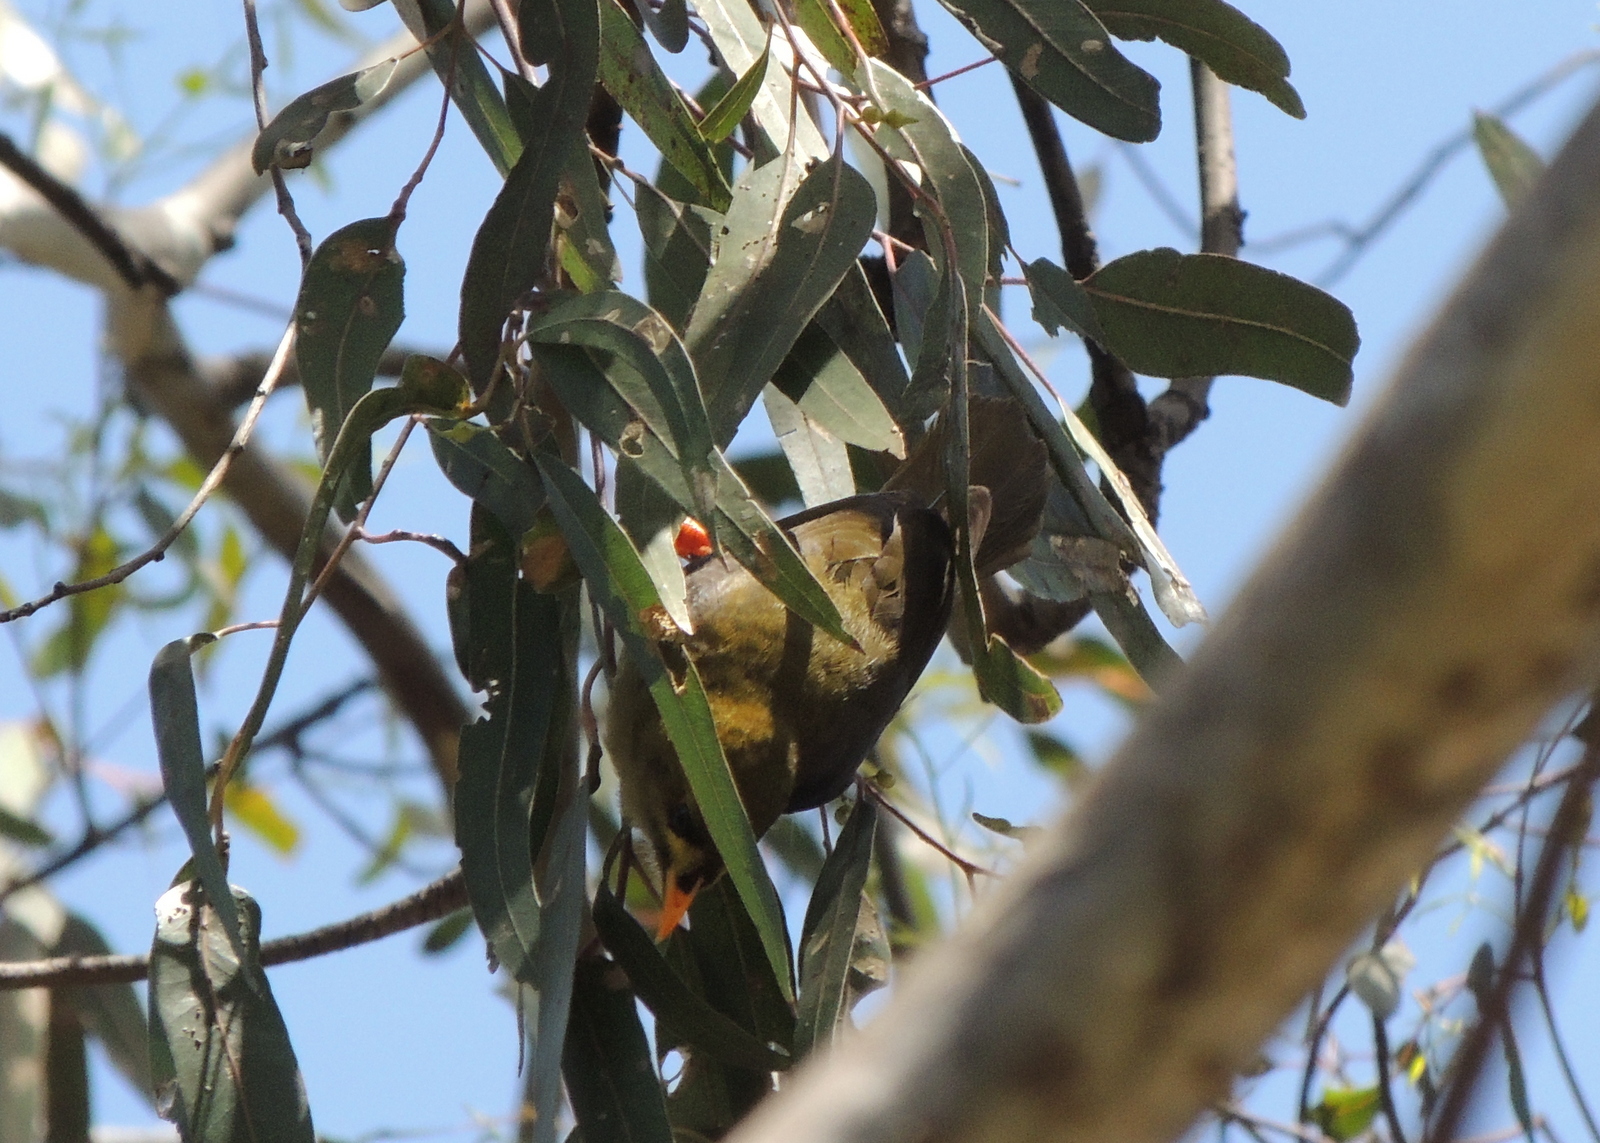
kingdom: Animalia
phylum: Chordata
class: Aves
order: Passeriformes
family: Meliphagidae
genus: Manorina
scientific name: Manorina melanophrys
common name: Bell miner
